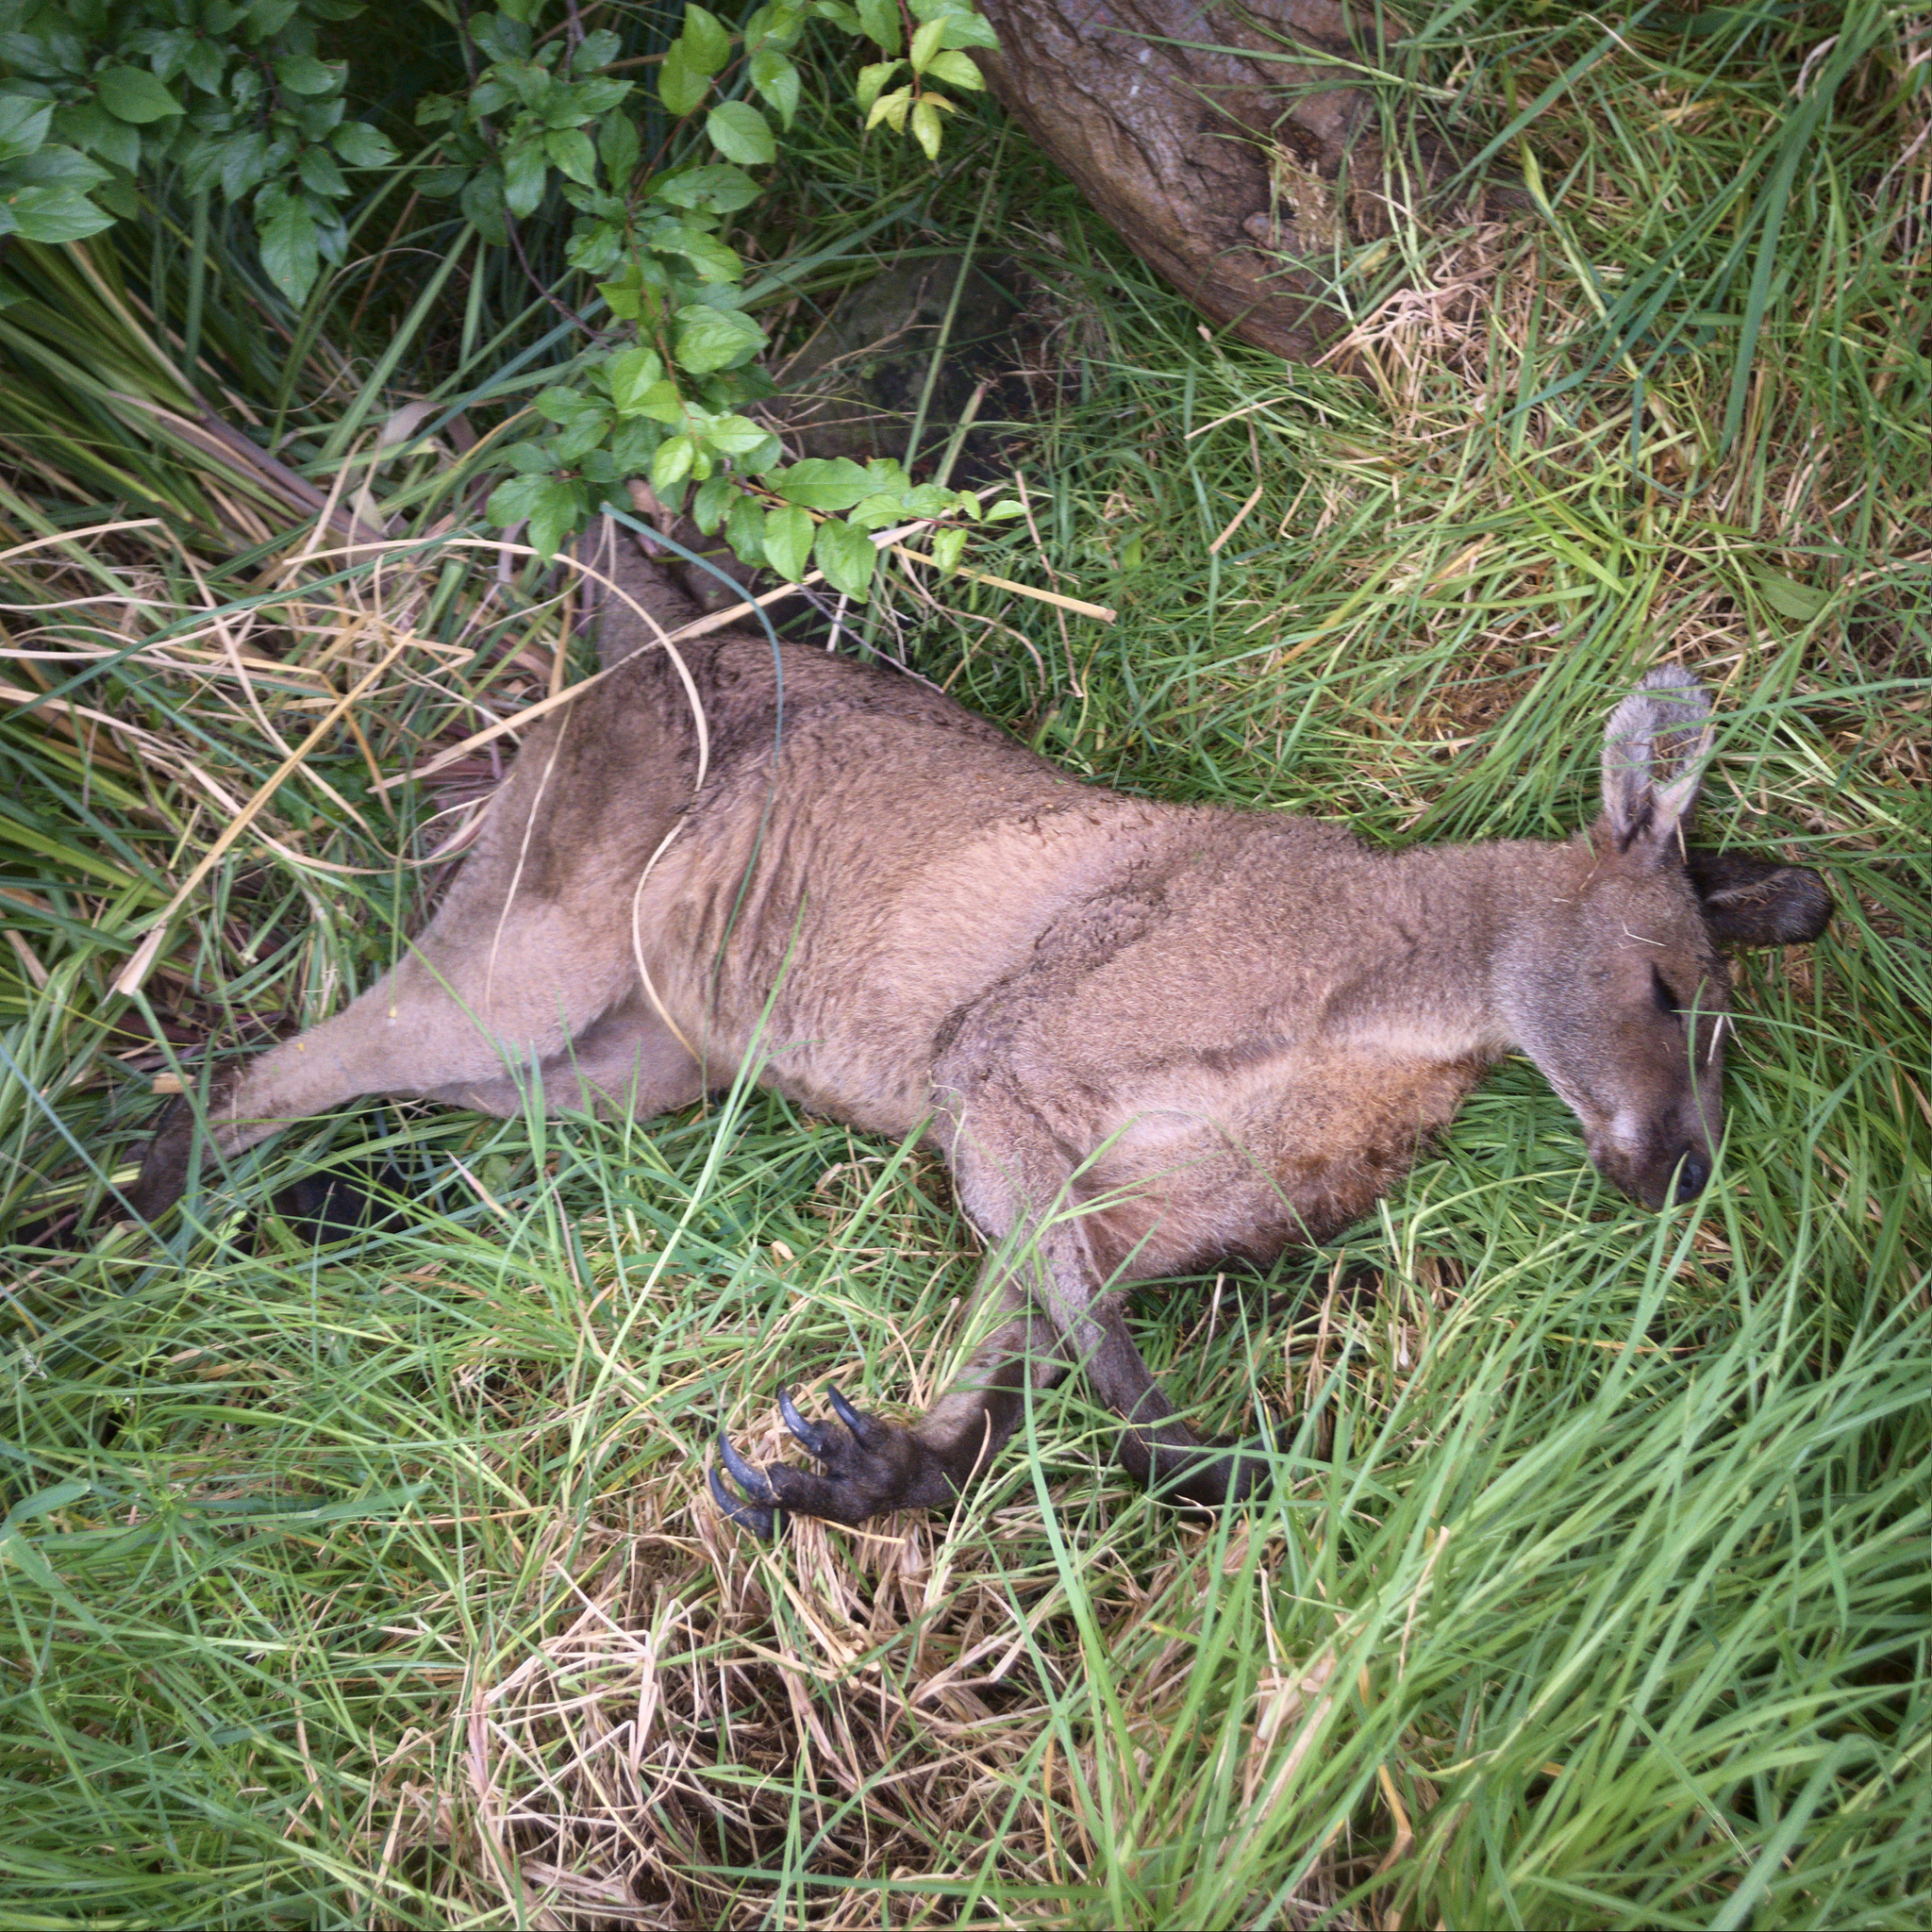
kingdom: Animalia
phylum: Chordata
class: Mammalia
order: Diprotodontia
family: Macropodidae
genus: Macropus
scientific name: Macropus giganteus
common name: Eastern grey kangaroo
